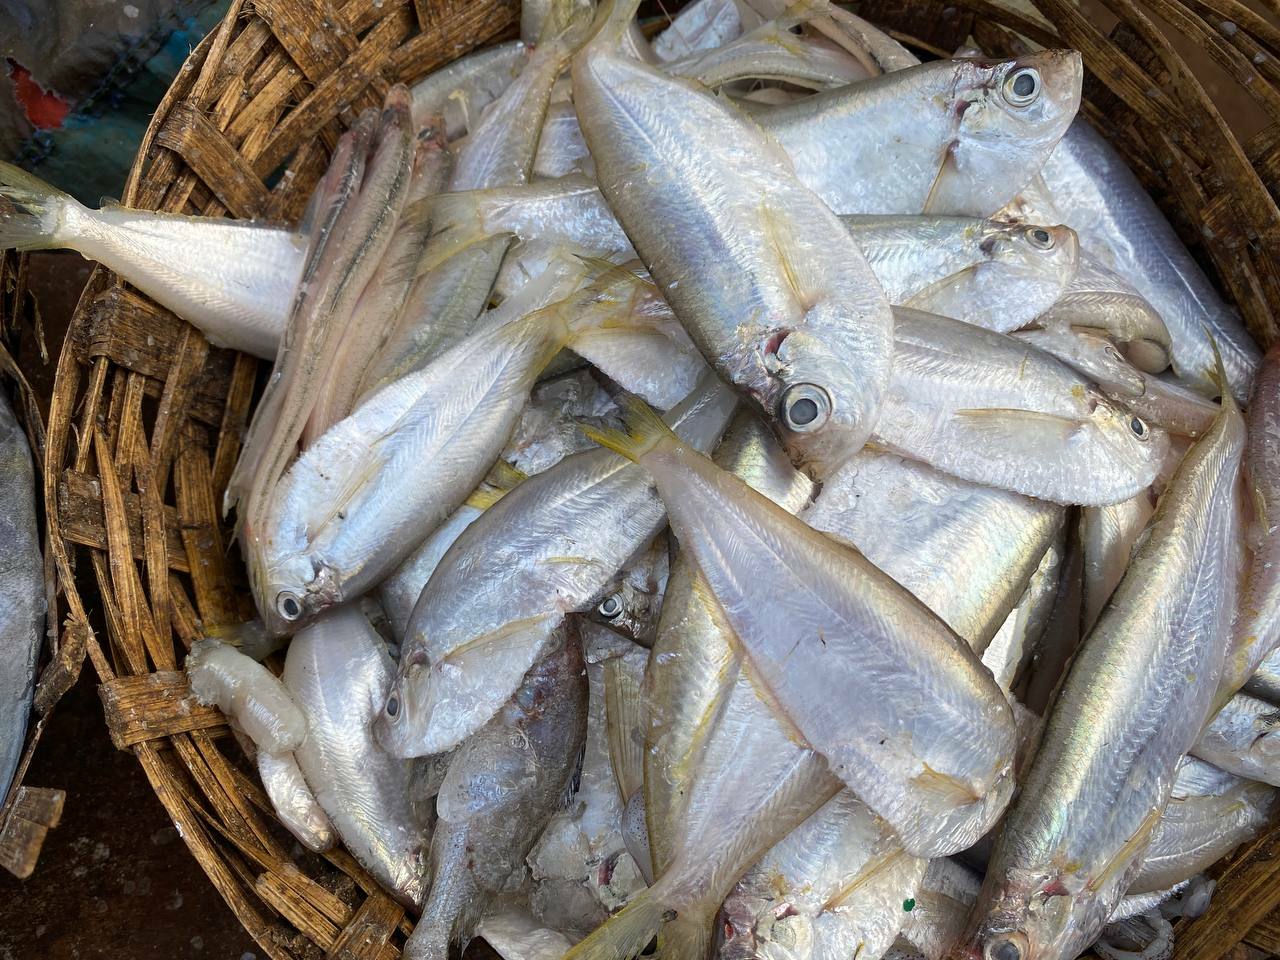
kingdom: Animalia
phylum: Chordata
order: Clupeiformes
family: Pristigasteridae
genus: Opisthopterus
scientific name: Opisthopterus tardoore
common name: Tardoore
